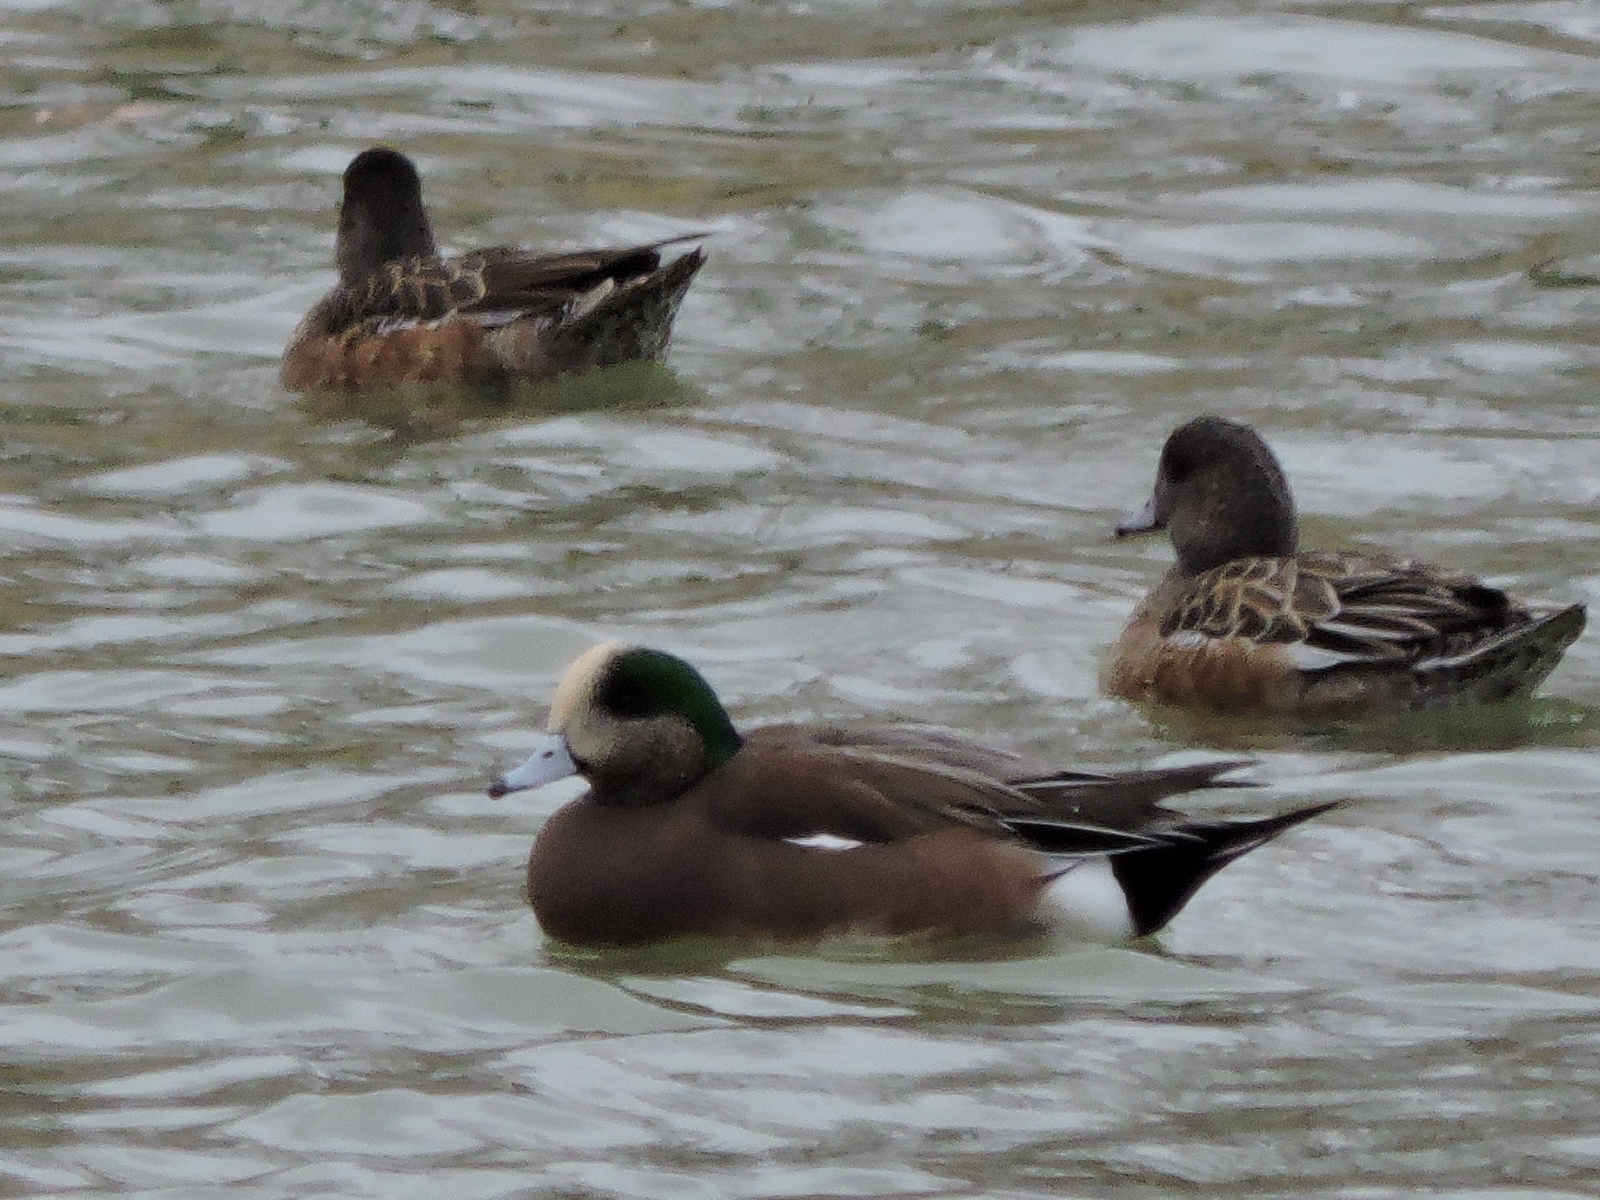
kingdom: Animalia
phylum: Chordata
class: Aves
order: Anseriformes
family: Anatidae
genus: Mareca
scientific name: Mareca americana
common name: American wigeon
